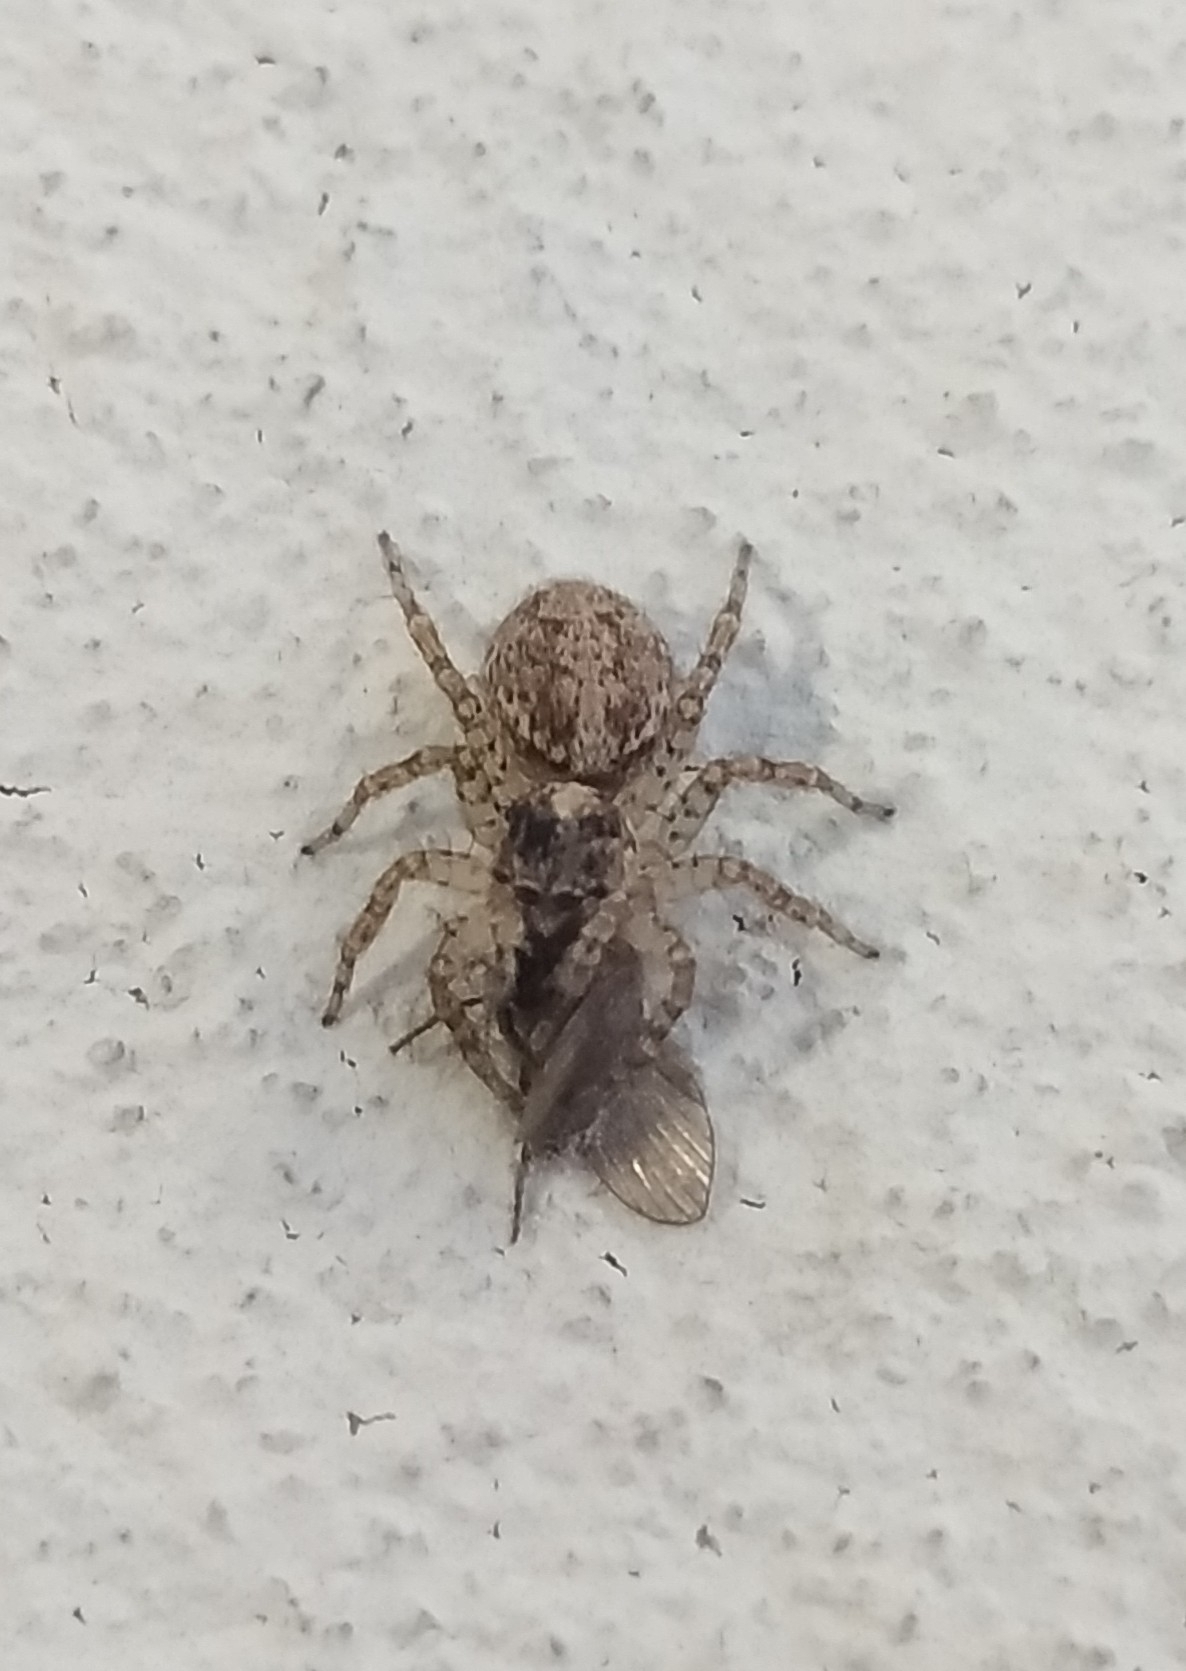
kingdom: Animalia
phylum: Arthropoda
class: Arachnida
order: Araneae
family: Salticidae
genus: Saitis
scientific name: Saitis variegatus
